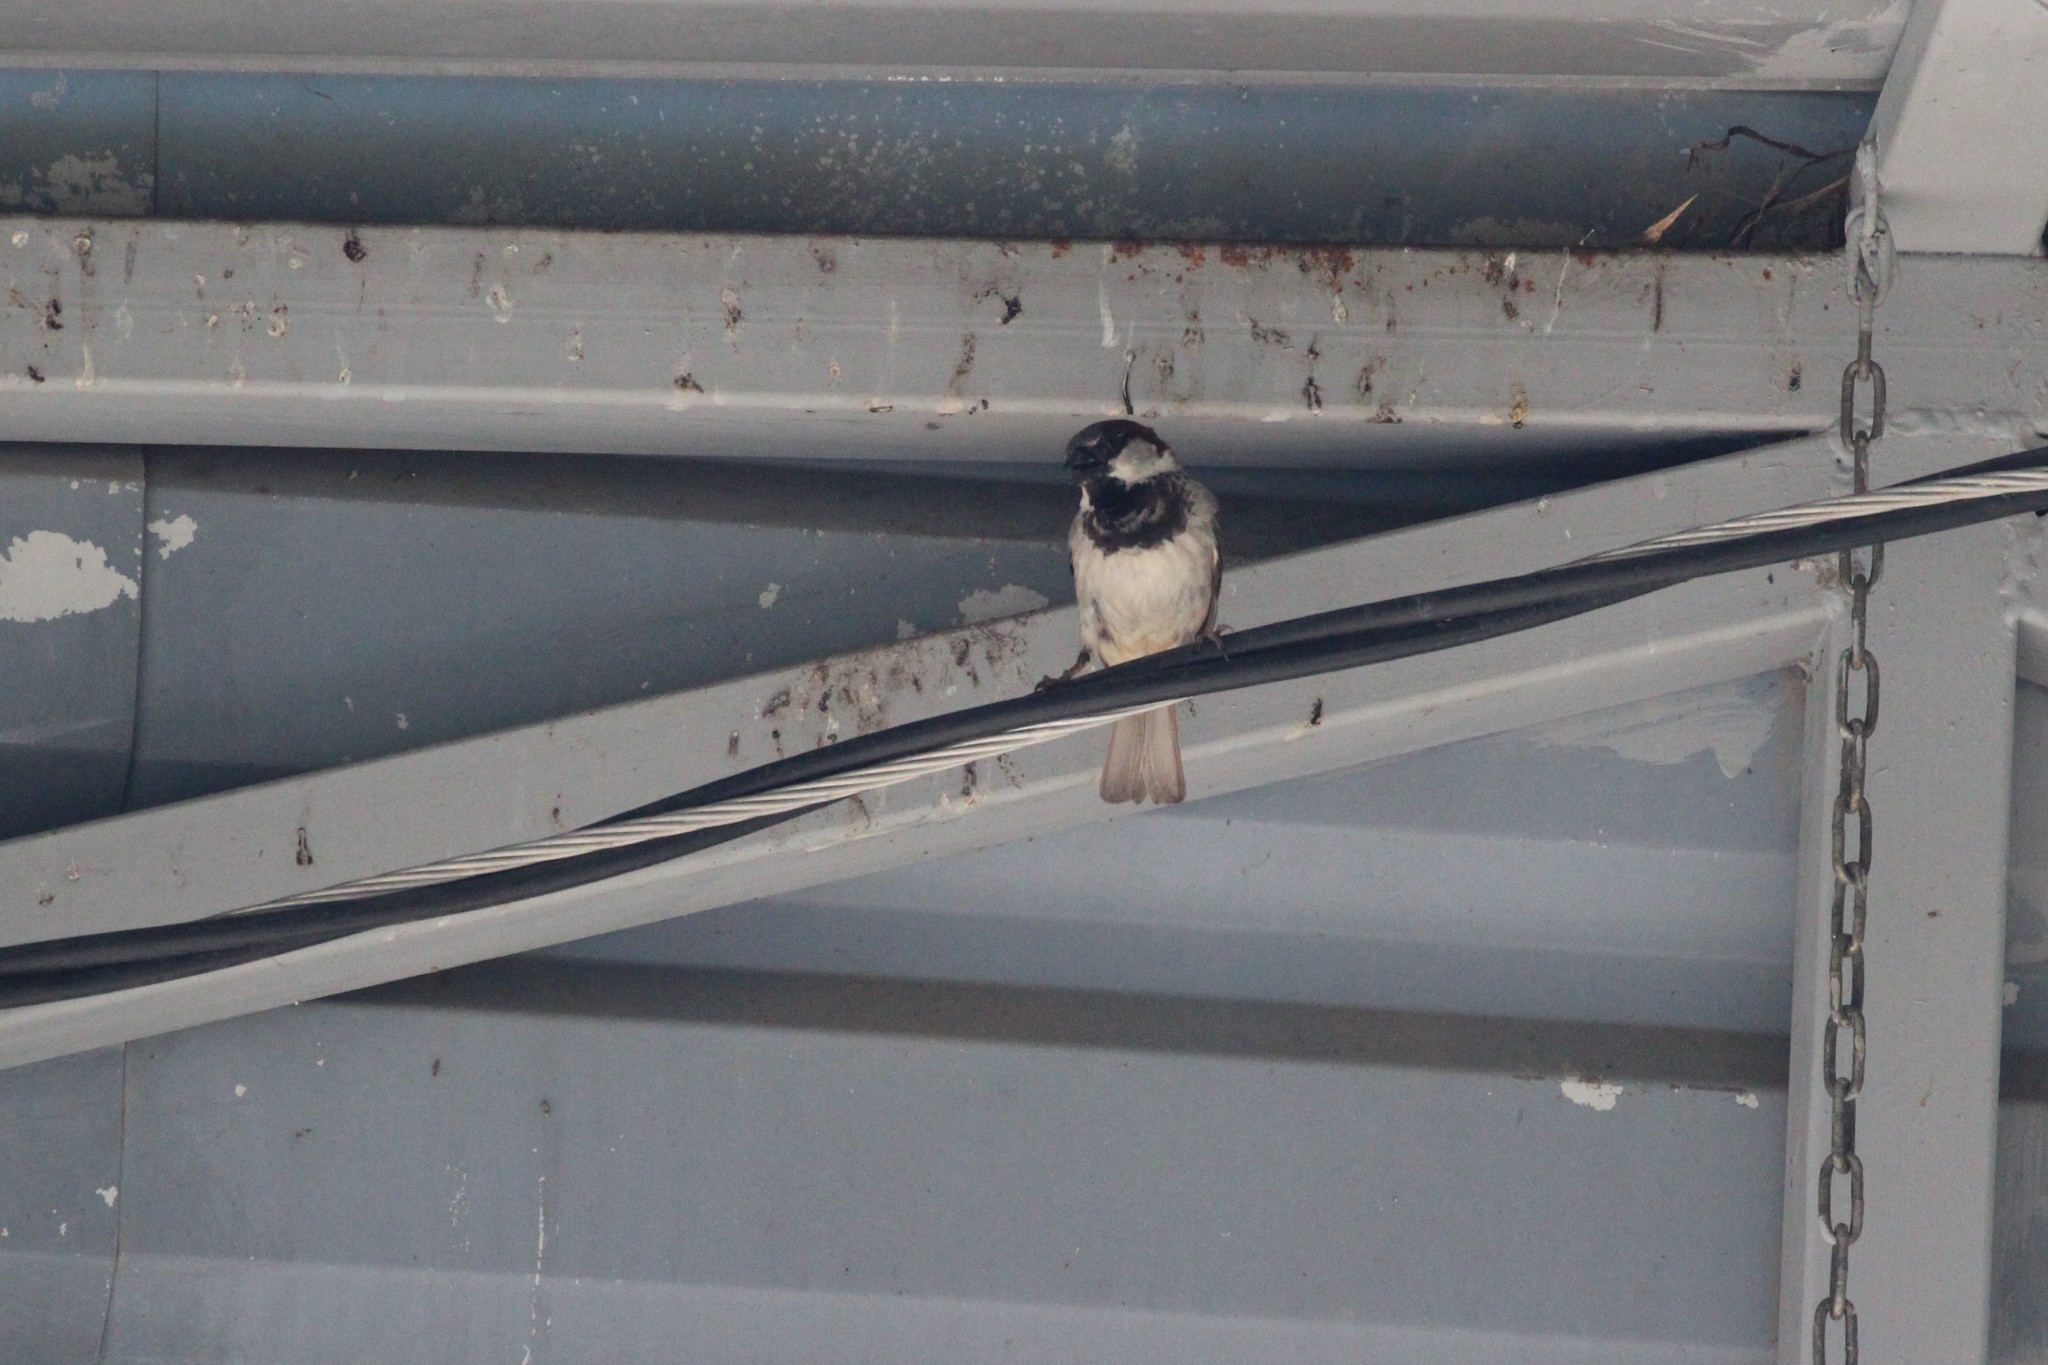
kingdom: Animalia
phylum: Chordata
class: Aves
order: Passeriformes
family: Passeridae
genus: Passer
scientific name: Passer domesticus
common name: House sparrow
